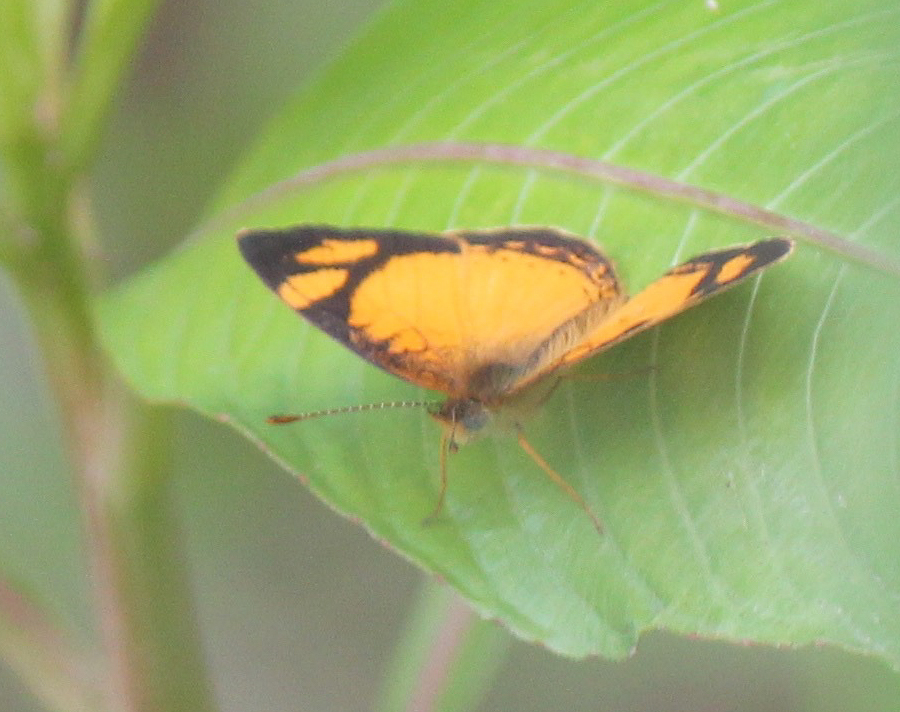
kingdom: Animalia
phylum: Arthropoda
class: Insecta
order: Lepidoptera
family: Nymphalidae
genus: Tegosa
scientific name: Tegosa claudina
